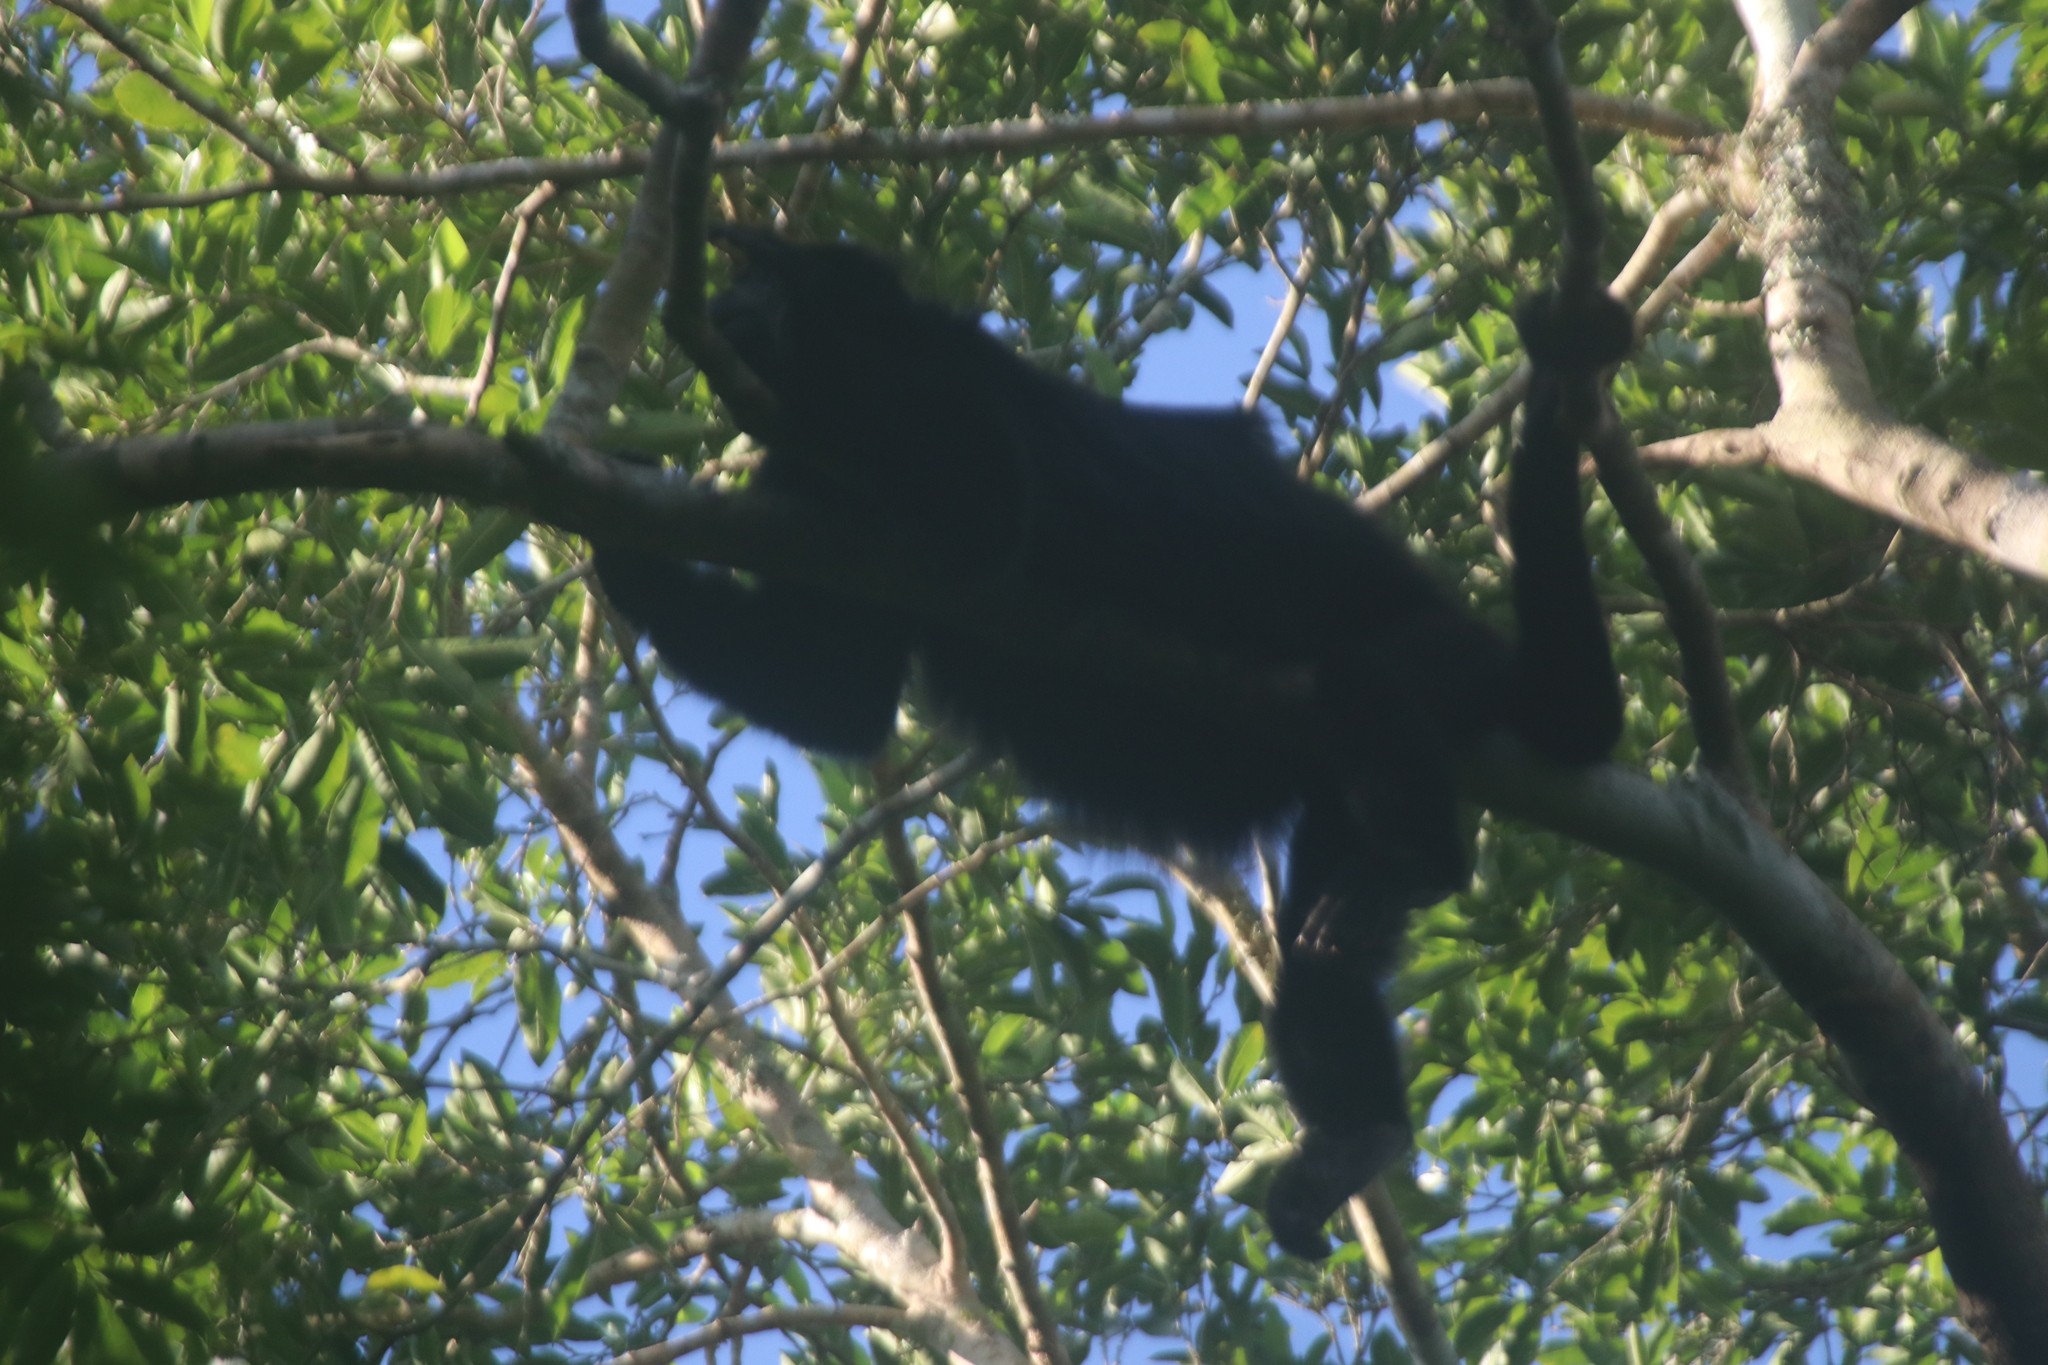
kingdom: Animalia
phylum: Chordata
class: Mammalia
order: Primates
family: Atelidae
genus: Alouatta
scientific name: Alouatta pigra
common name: Guatemalan black howler
